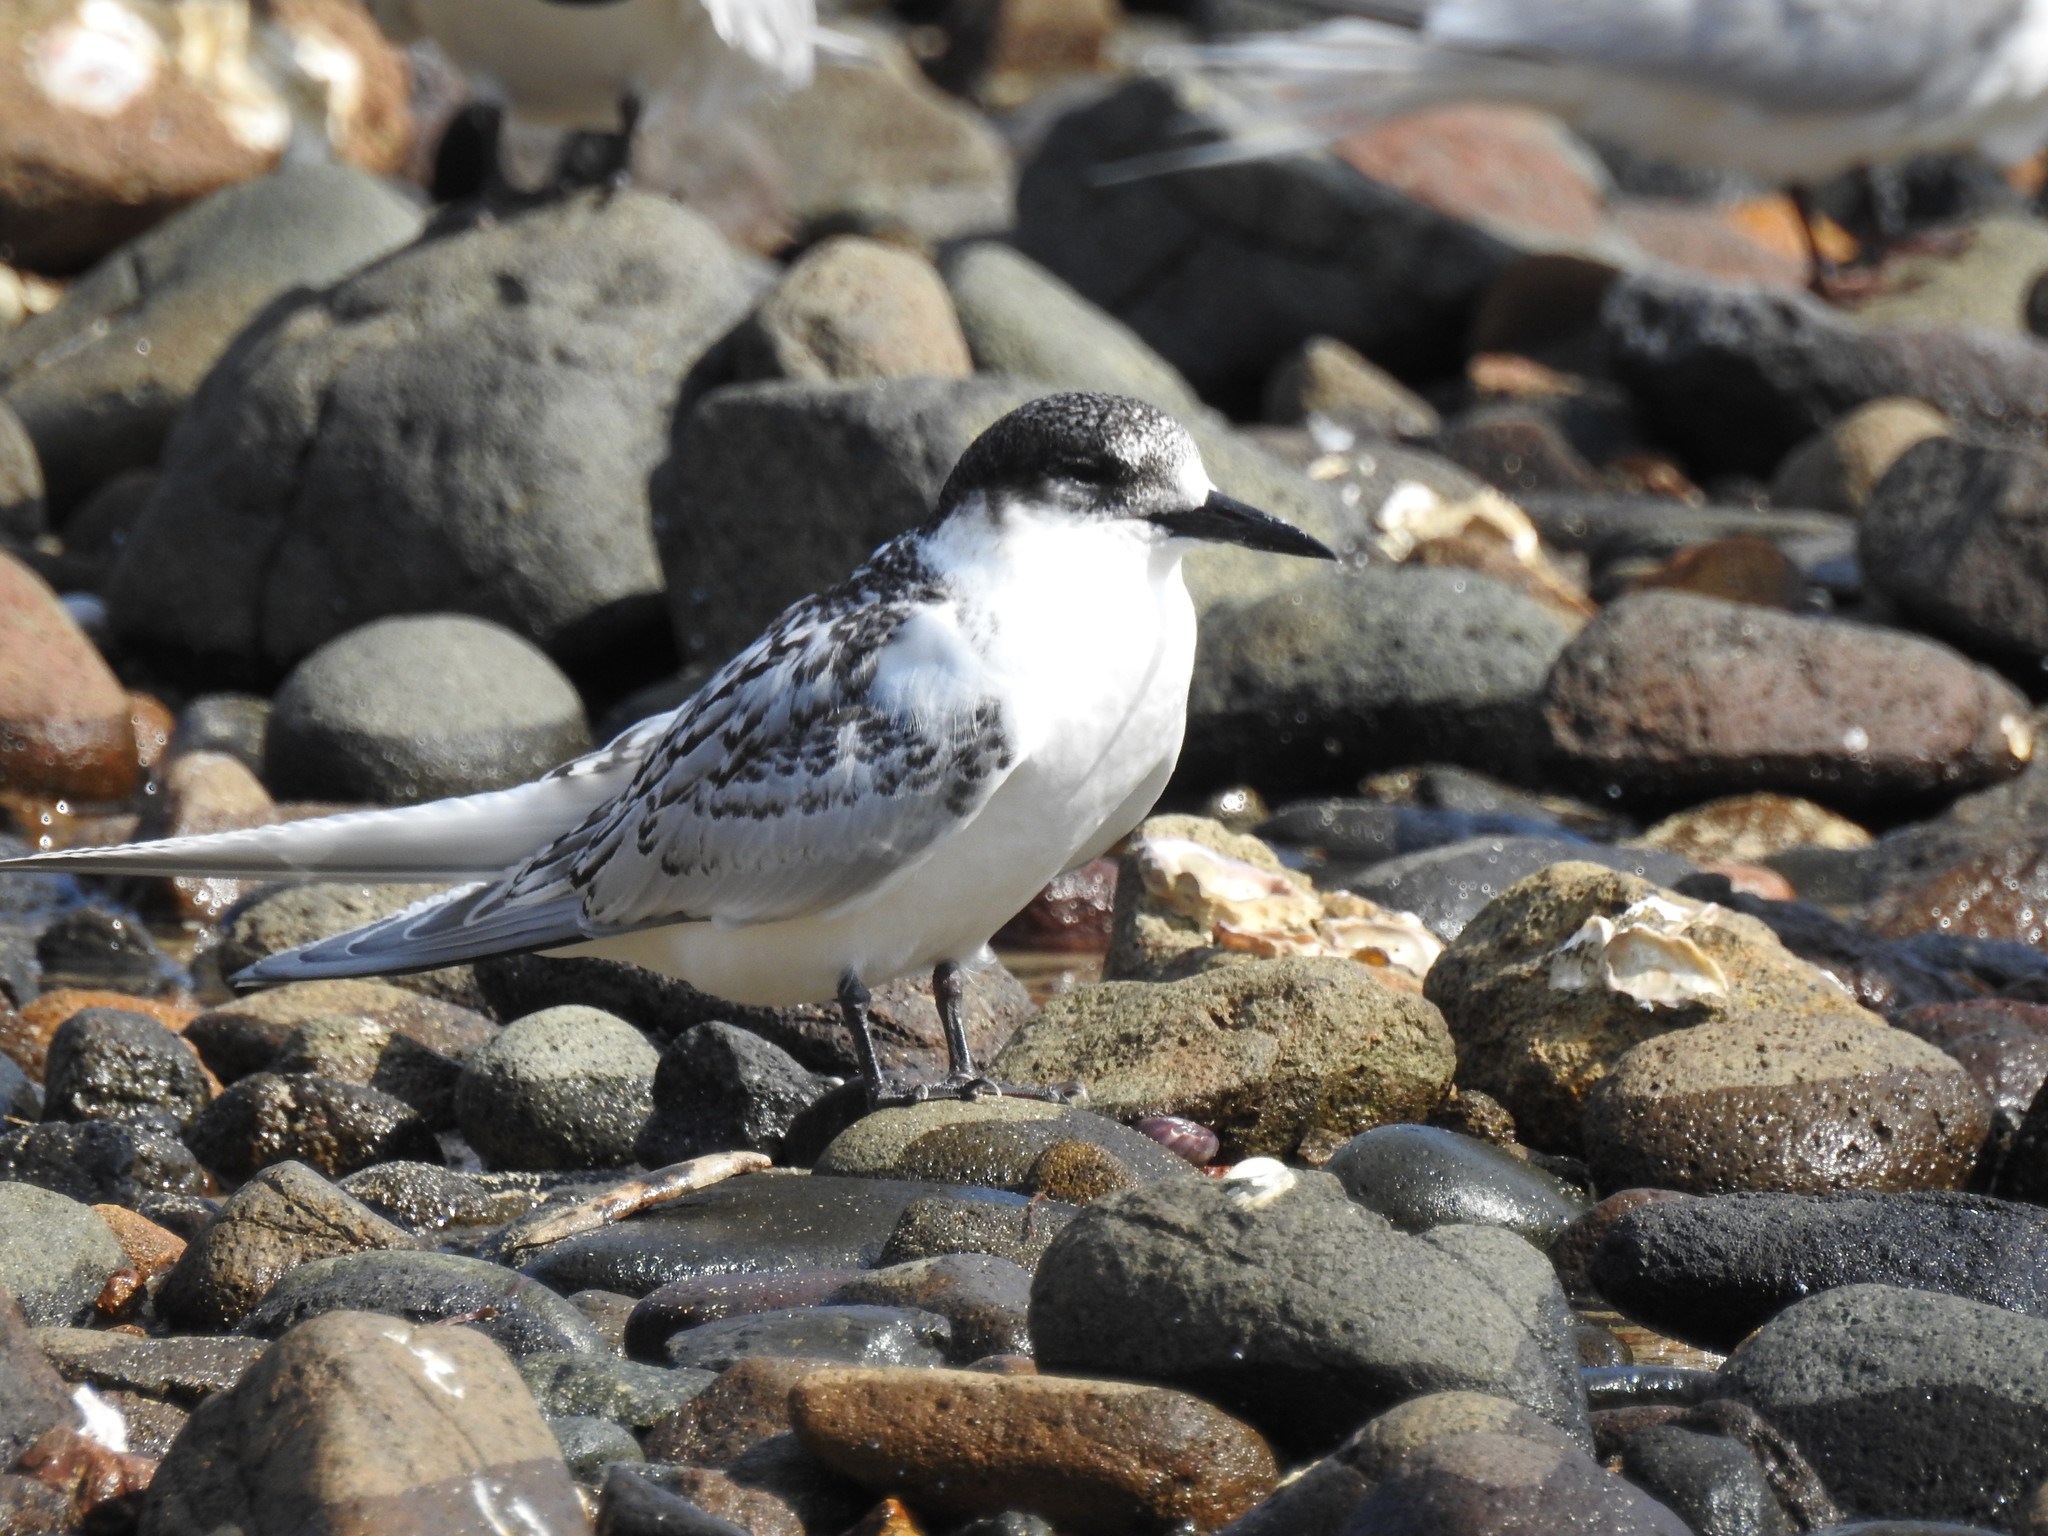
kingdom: Animalia
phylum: Chordata
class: Aves
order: Charadriiformes
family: Laridae
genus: Sterna
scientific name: Sterna striata
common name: White-fronted tern
